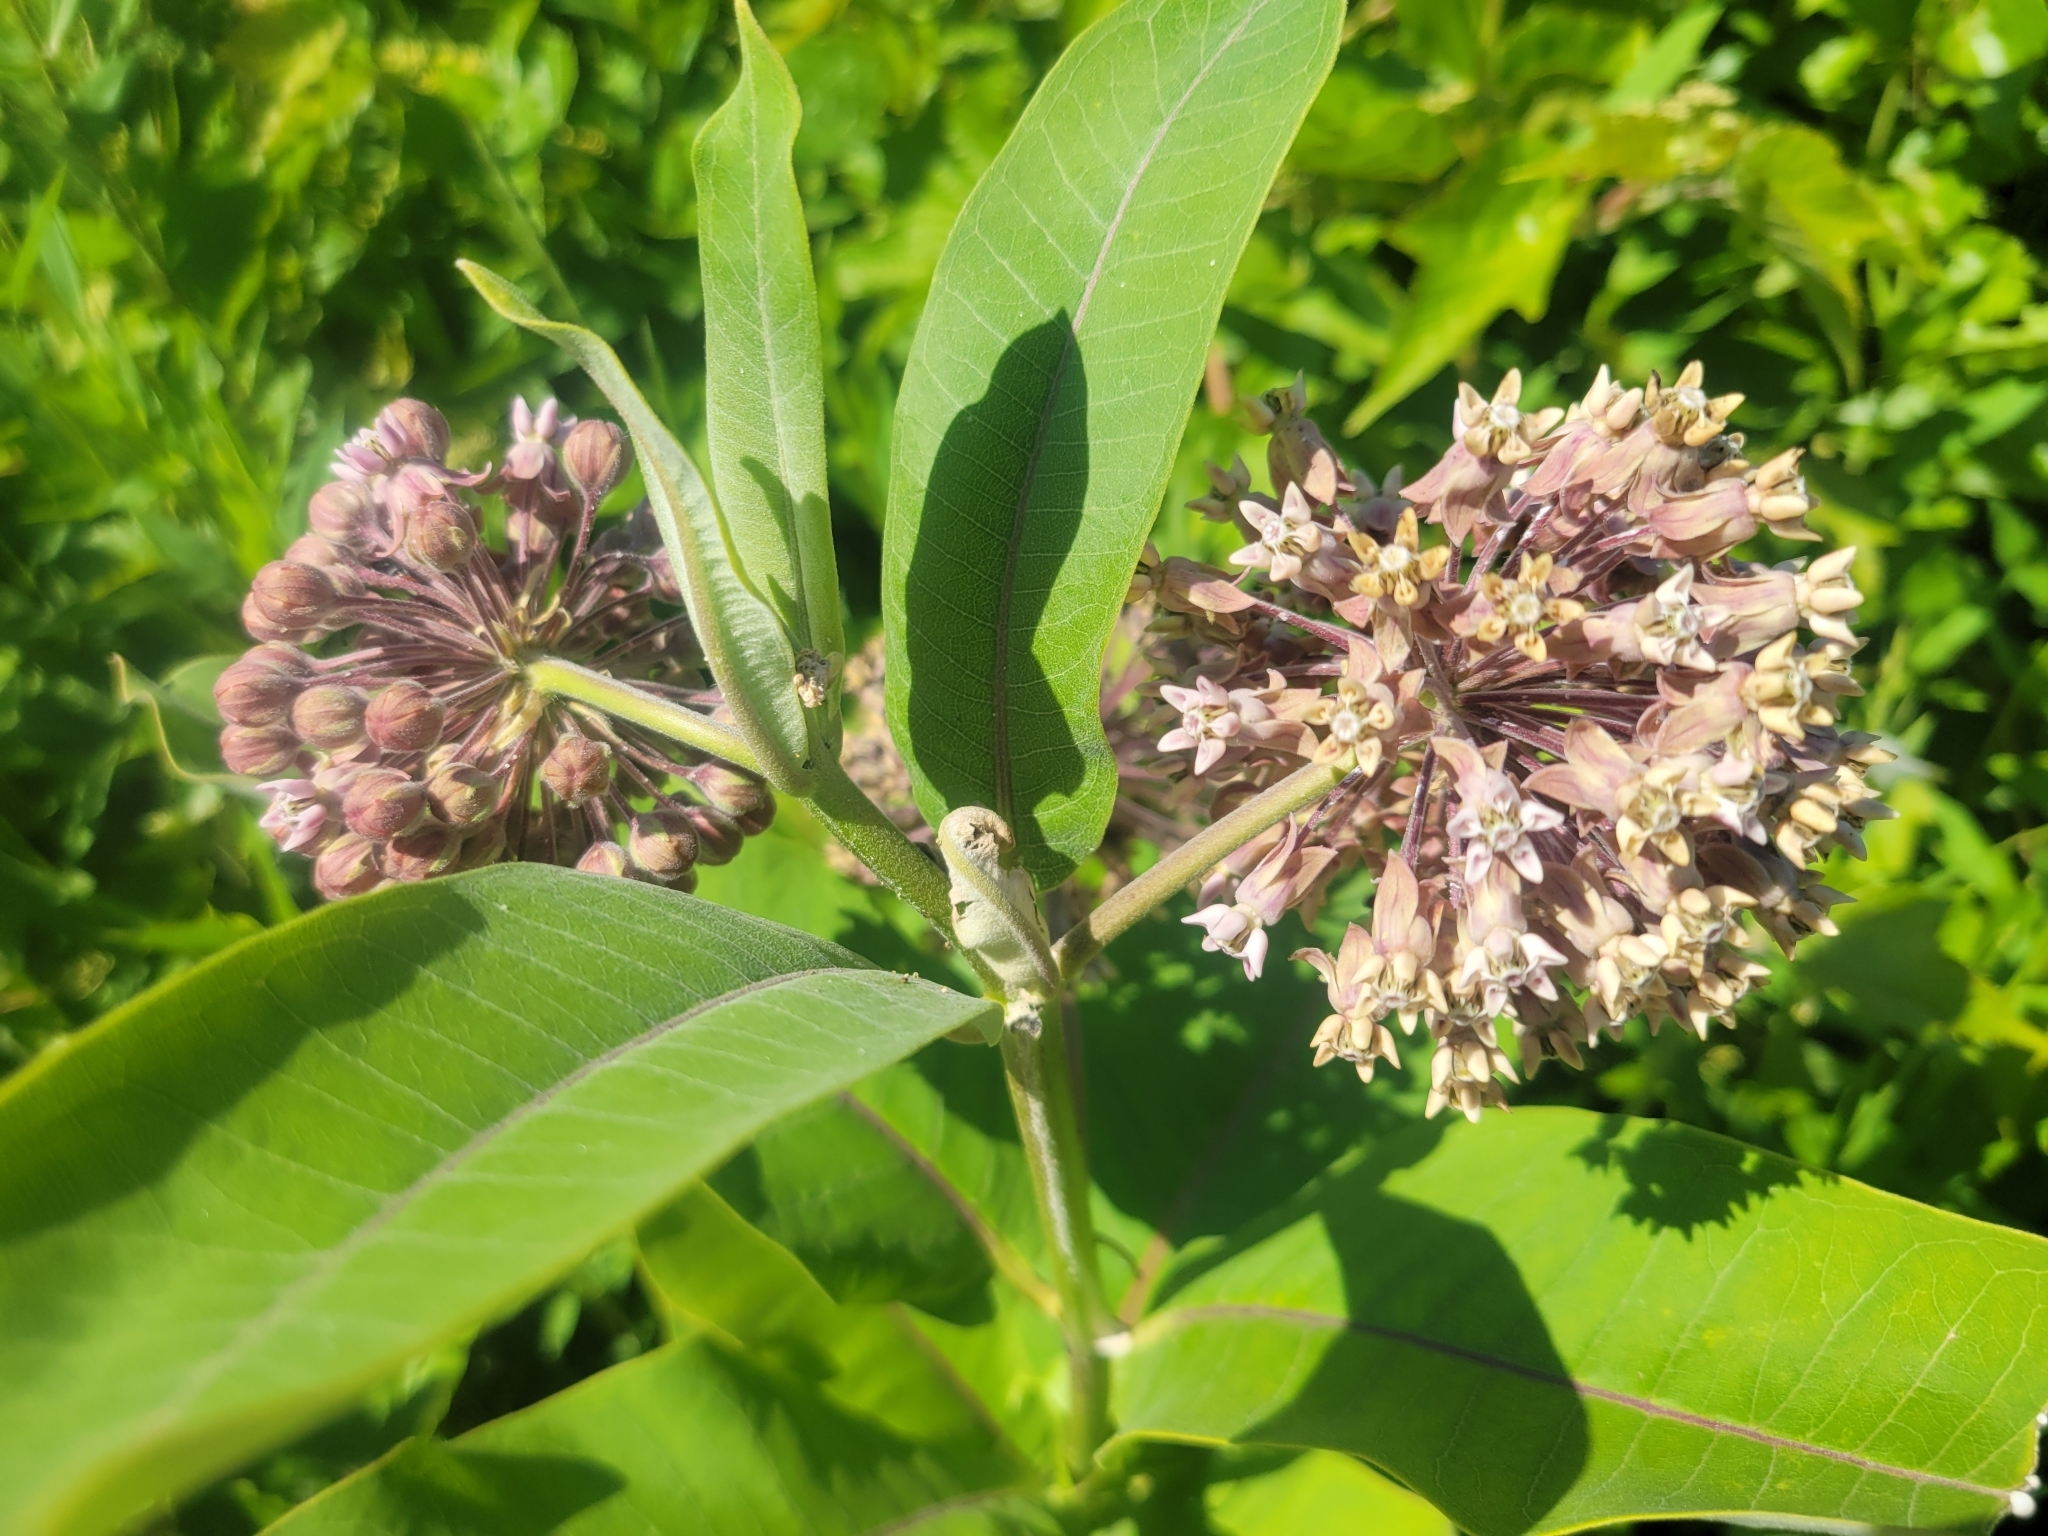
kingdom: Plantae
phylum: Tracheophyta
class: Magnoliopsida
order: Gentianales
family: Apocynaceae
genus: Asclepias
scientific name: Asclepias syriaca
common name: Common milkweed
